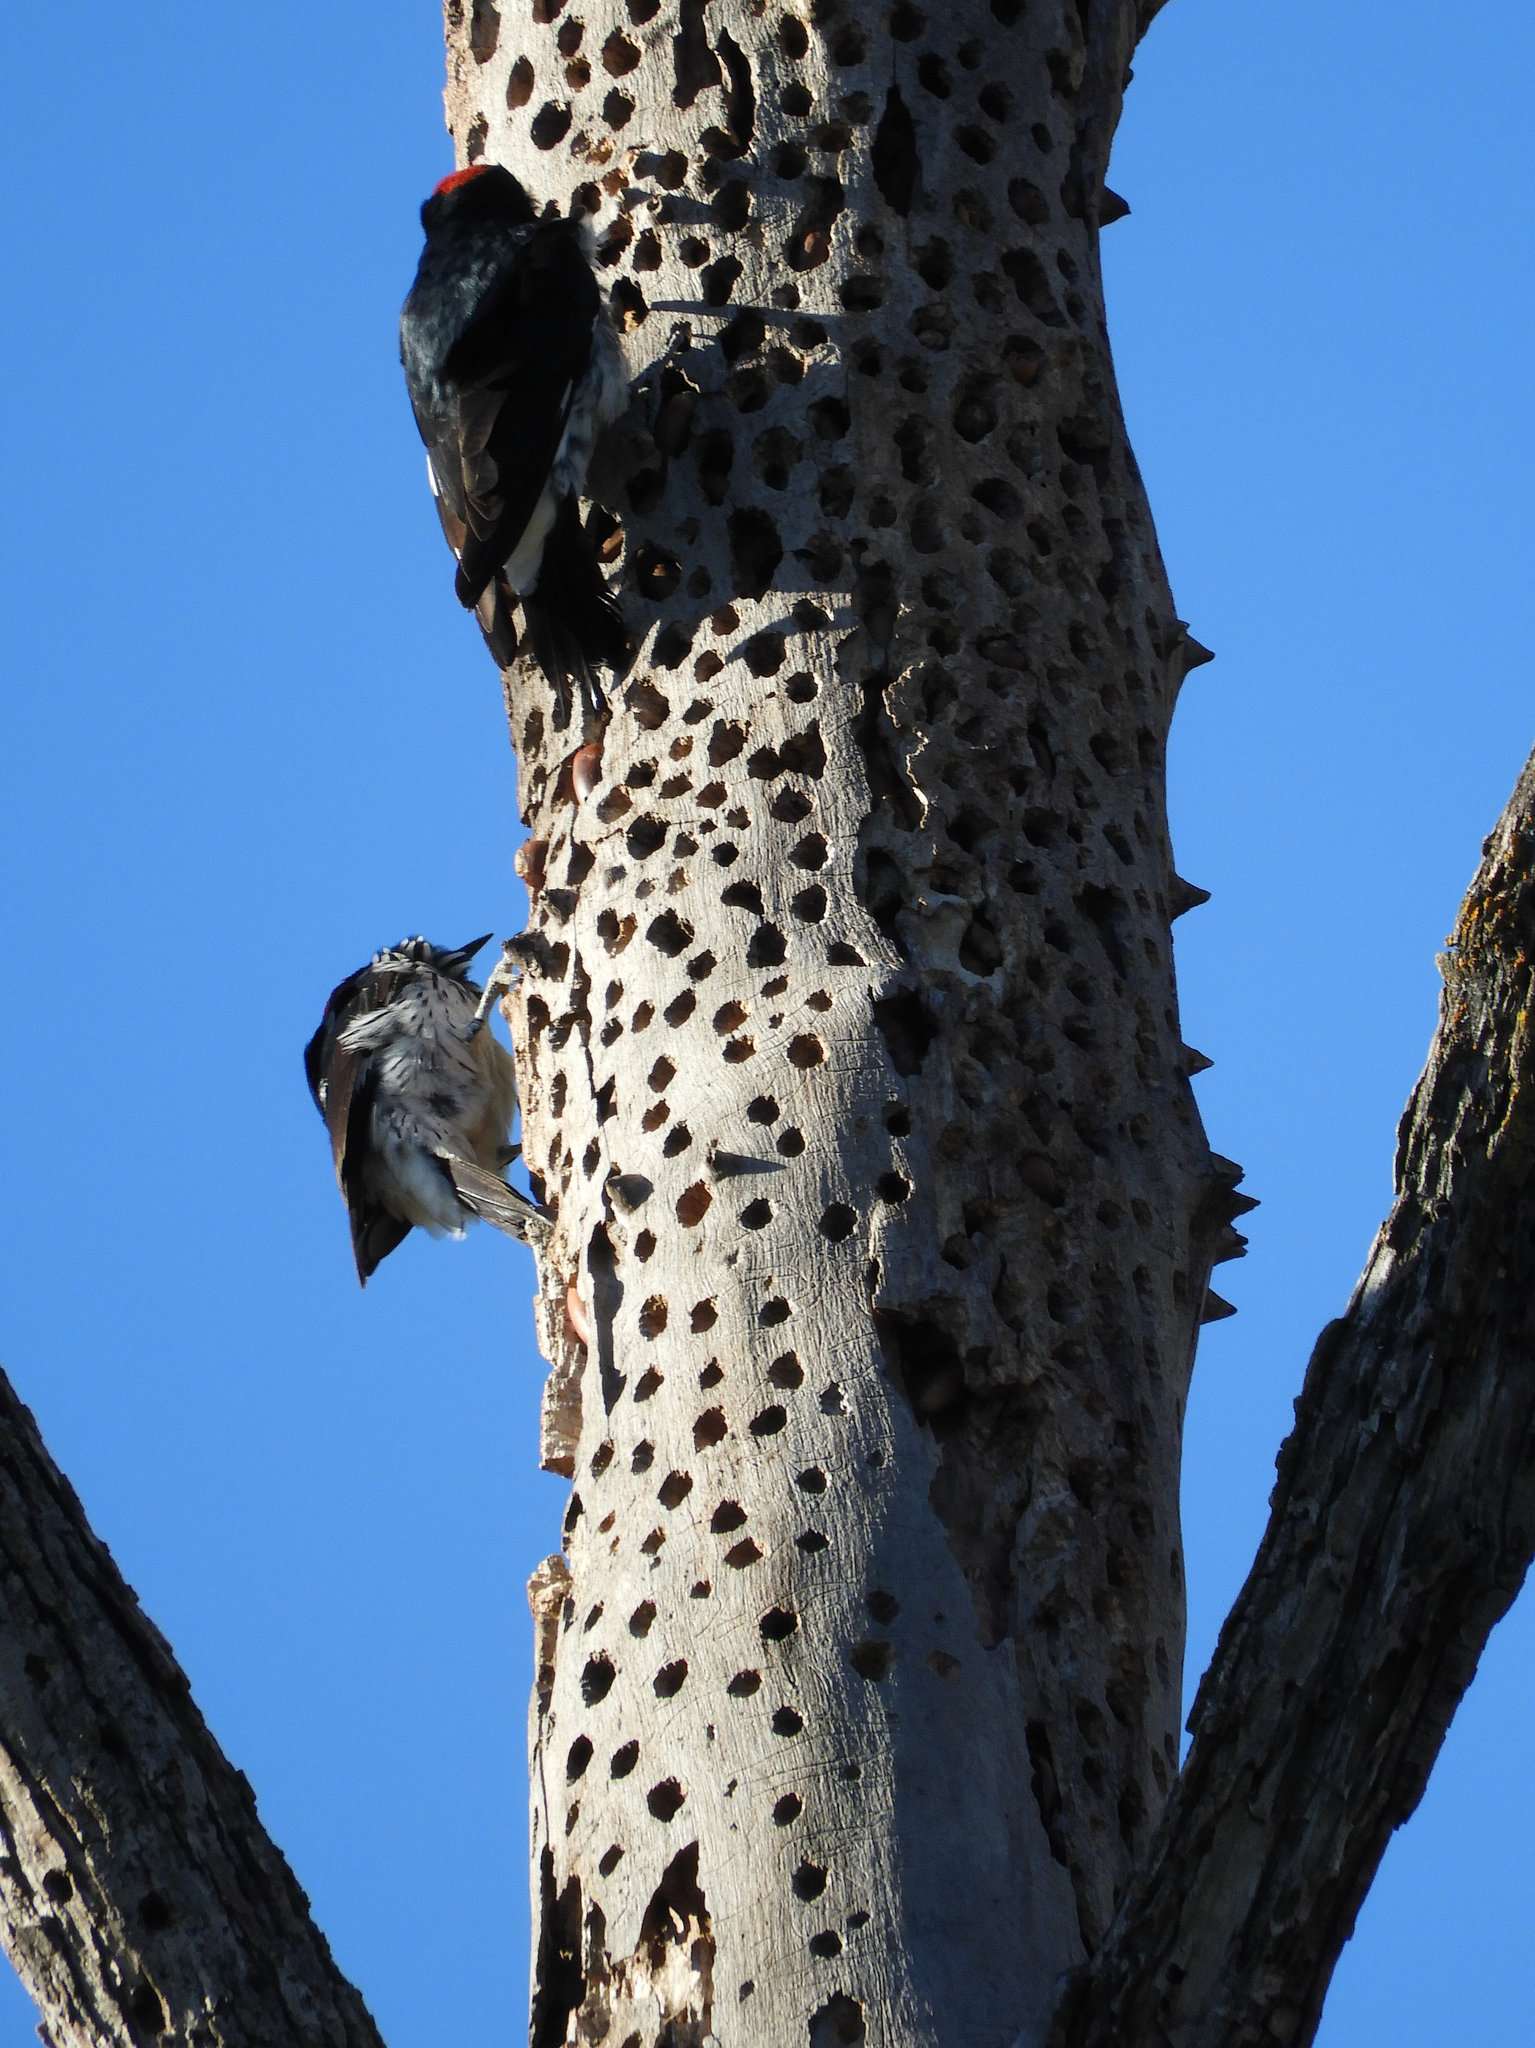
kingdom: Animalia
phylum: Chordata
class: Aves
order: Piciformes
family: Picidae
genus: Melanerpes
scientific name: Melanerpes formicivorus
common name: Acorn woodpecker
